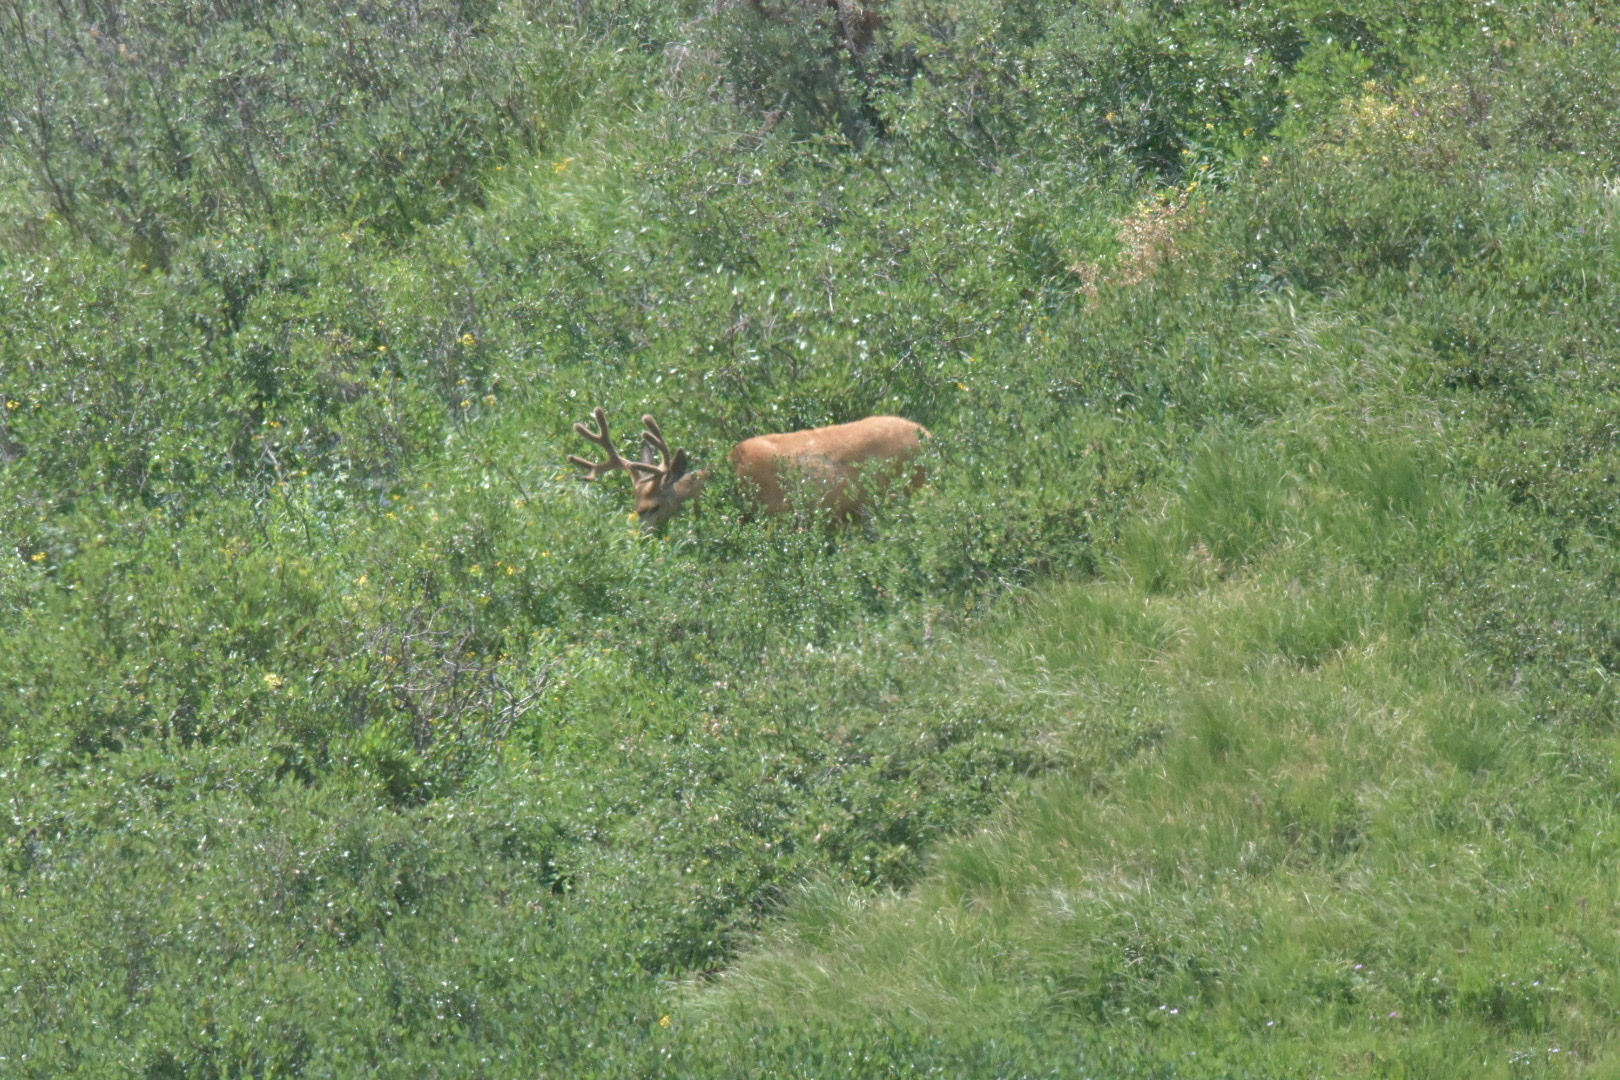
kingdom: Animalia
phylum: Chordata
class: Mammalia
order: Artiodactyla
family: Cervidae
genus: Odocoileus
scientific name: Odocoileus hemionus
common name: Mule deer
